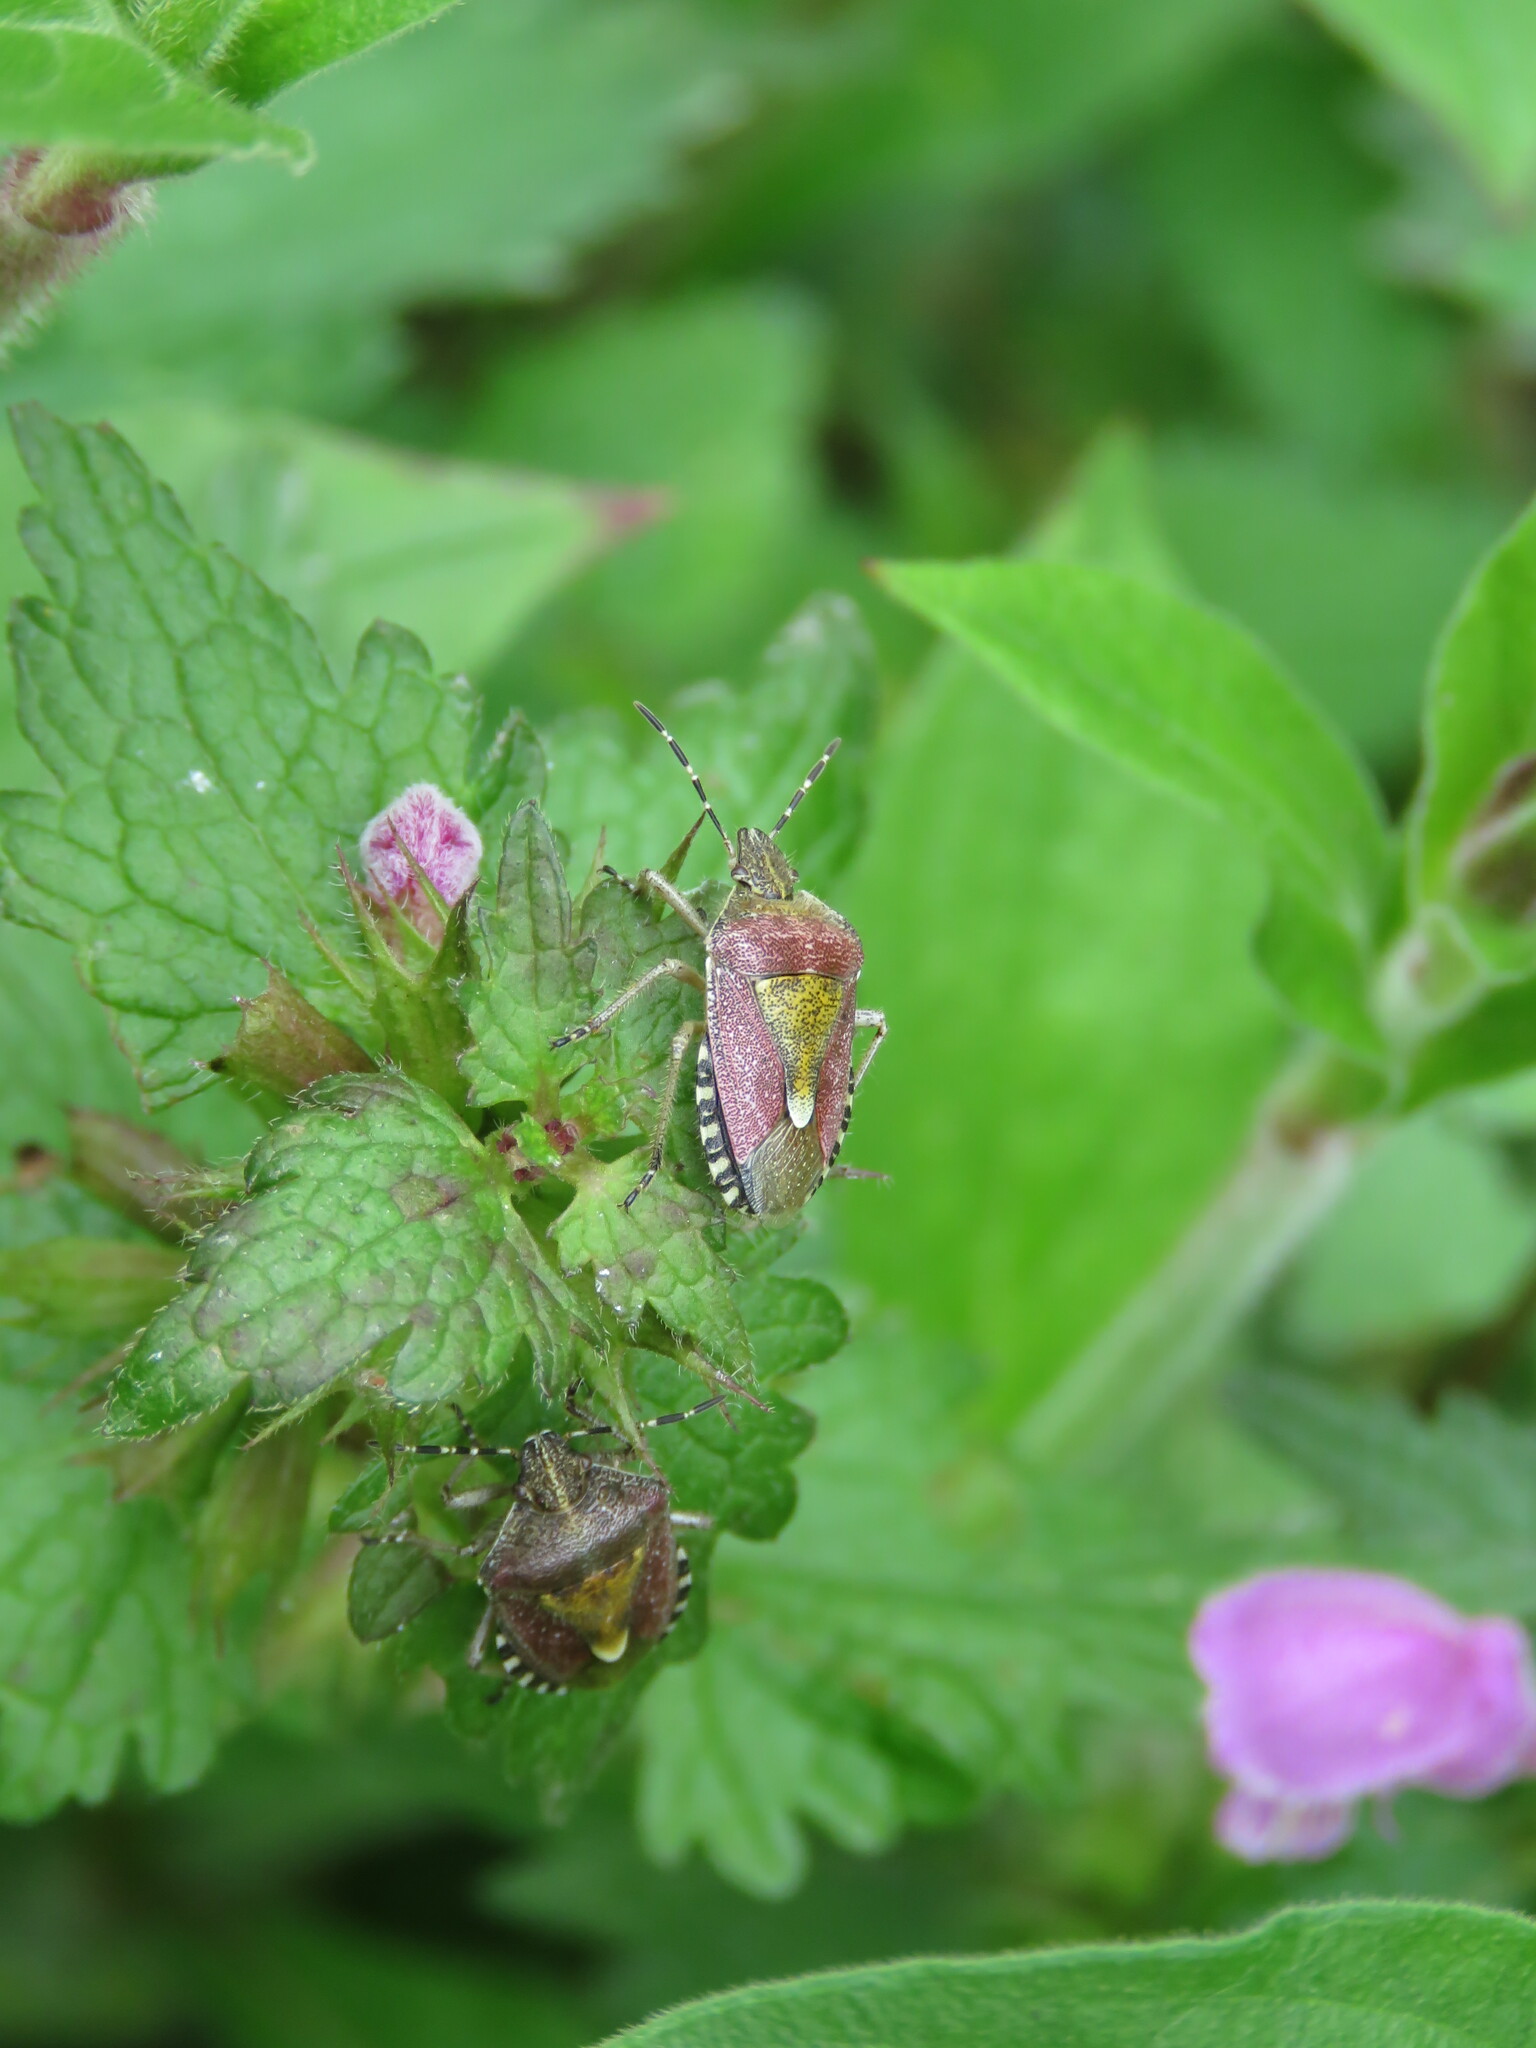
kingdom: Animalia
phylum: Arthropoda
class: Insecta
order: Hemiptera
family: Pentatomidae
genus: Dolycoris
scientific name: Dolycoris baccarum
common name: Sloe bug
